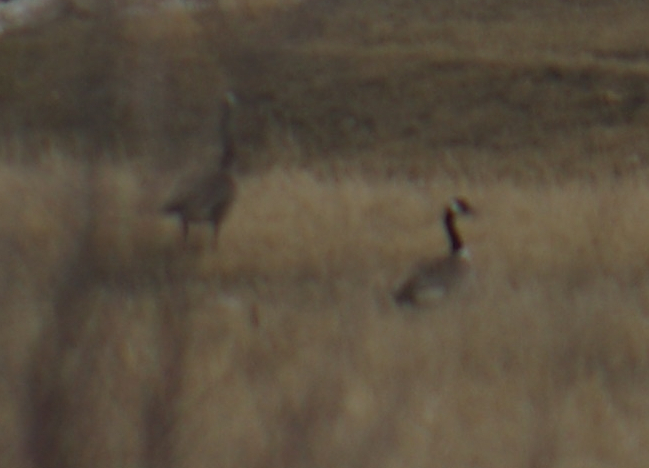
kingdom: Animalia
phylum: Chordata
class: Aves
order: Anseriformes
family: Anatidae
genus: Branta
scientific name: Branta canadensis
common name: Canada goose
